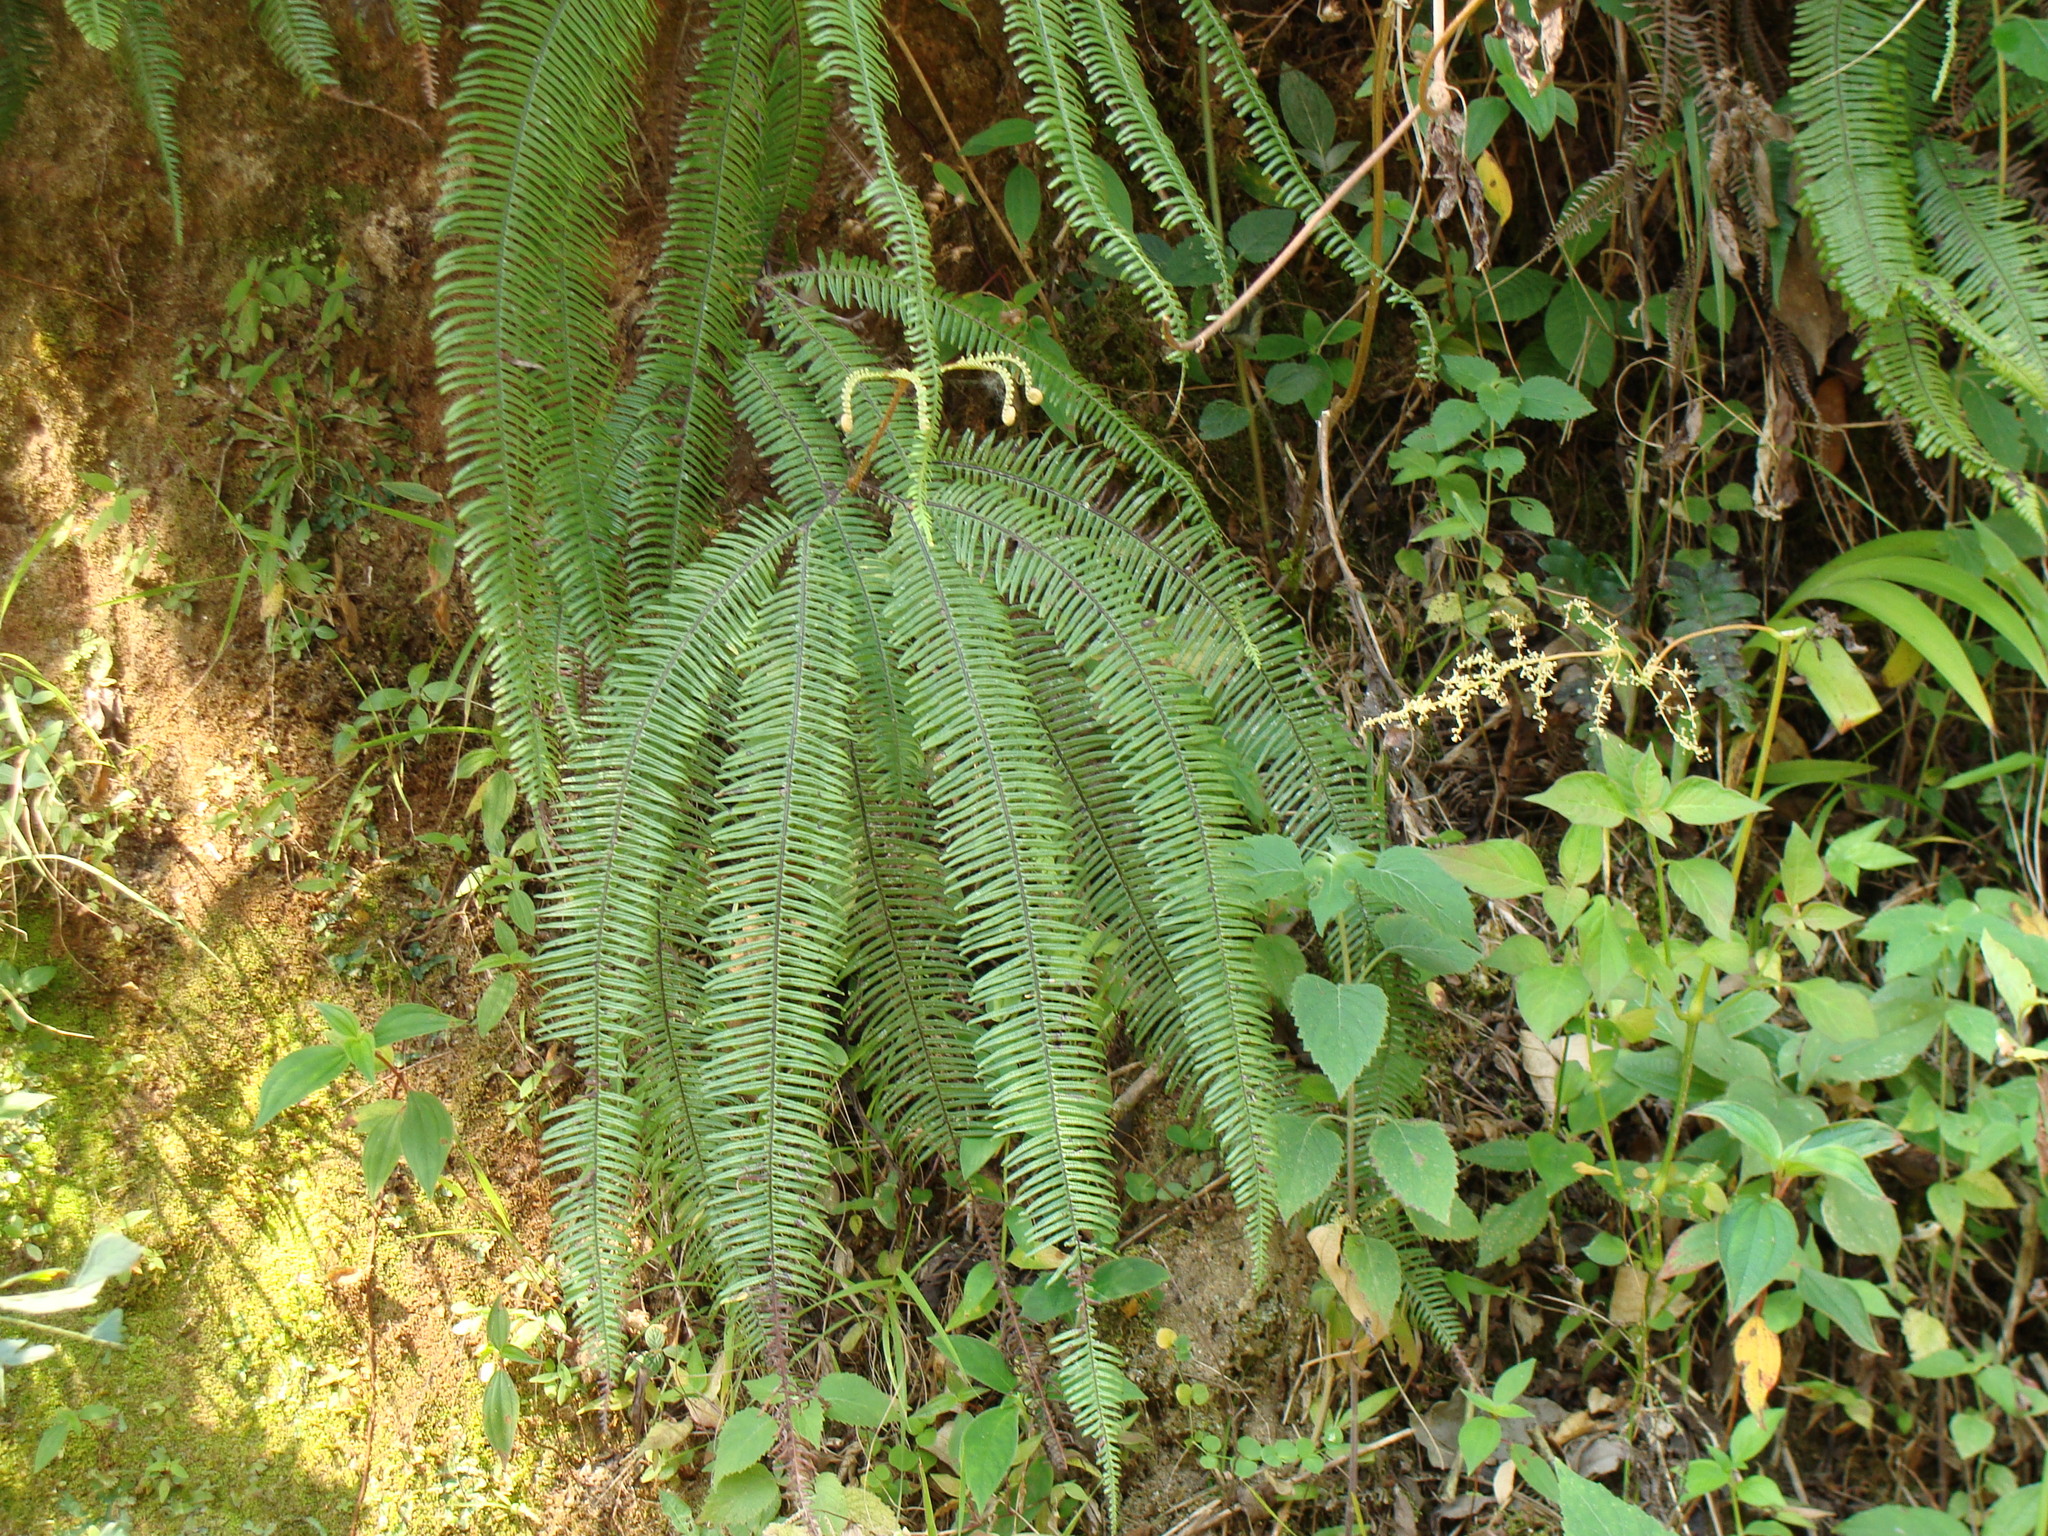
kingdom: Plantae
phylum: Tracheophyta
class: Polypodiopsida
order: Gleicheniales
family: Gleicheniaceae
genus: Sticherus
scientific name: Sticherus fulvus
